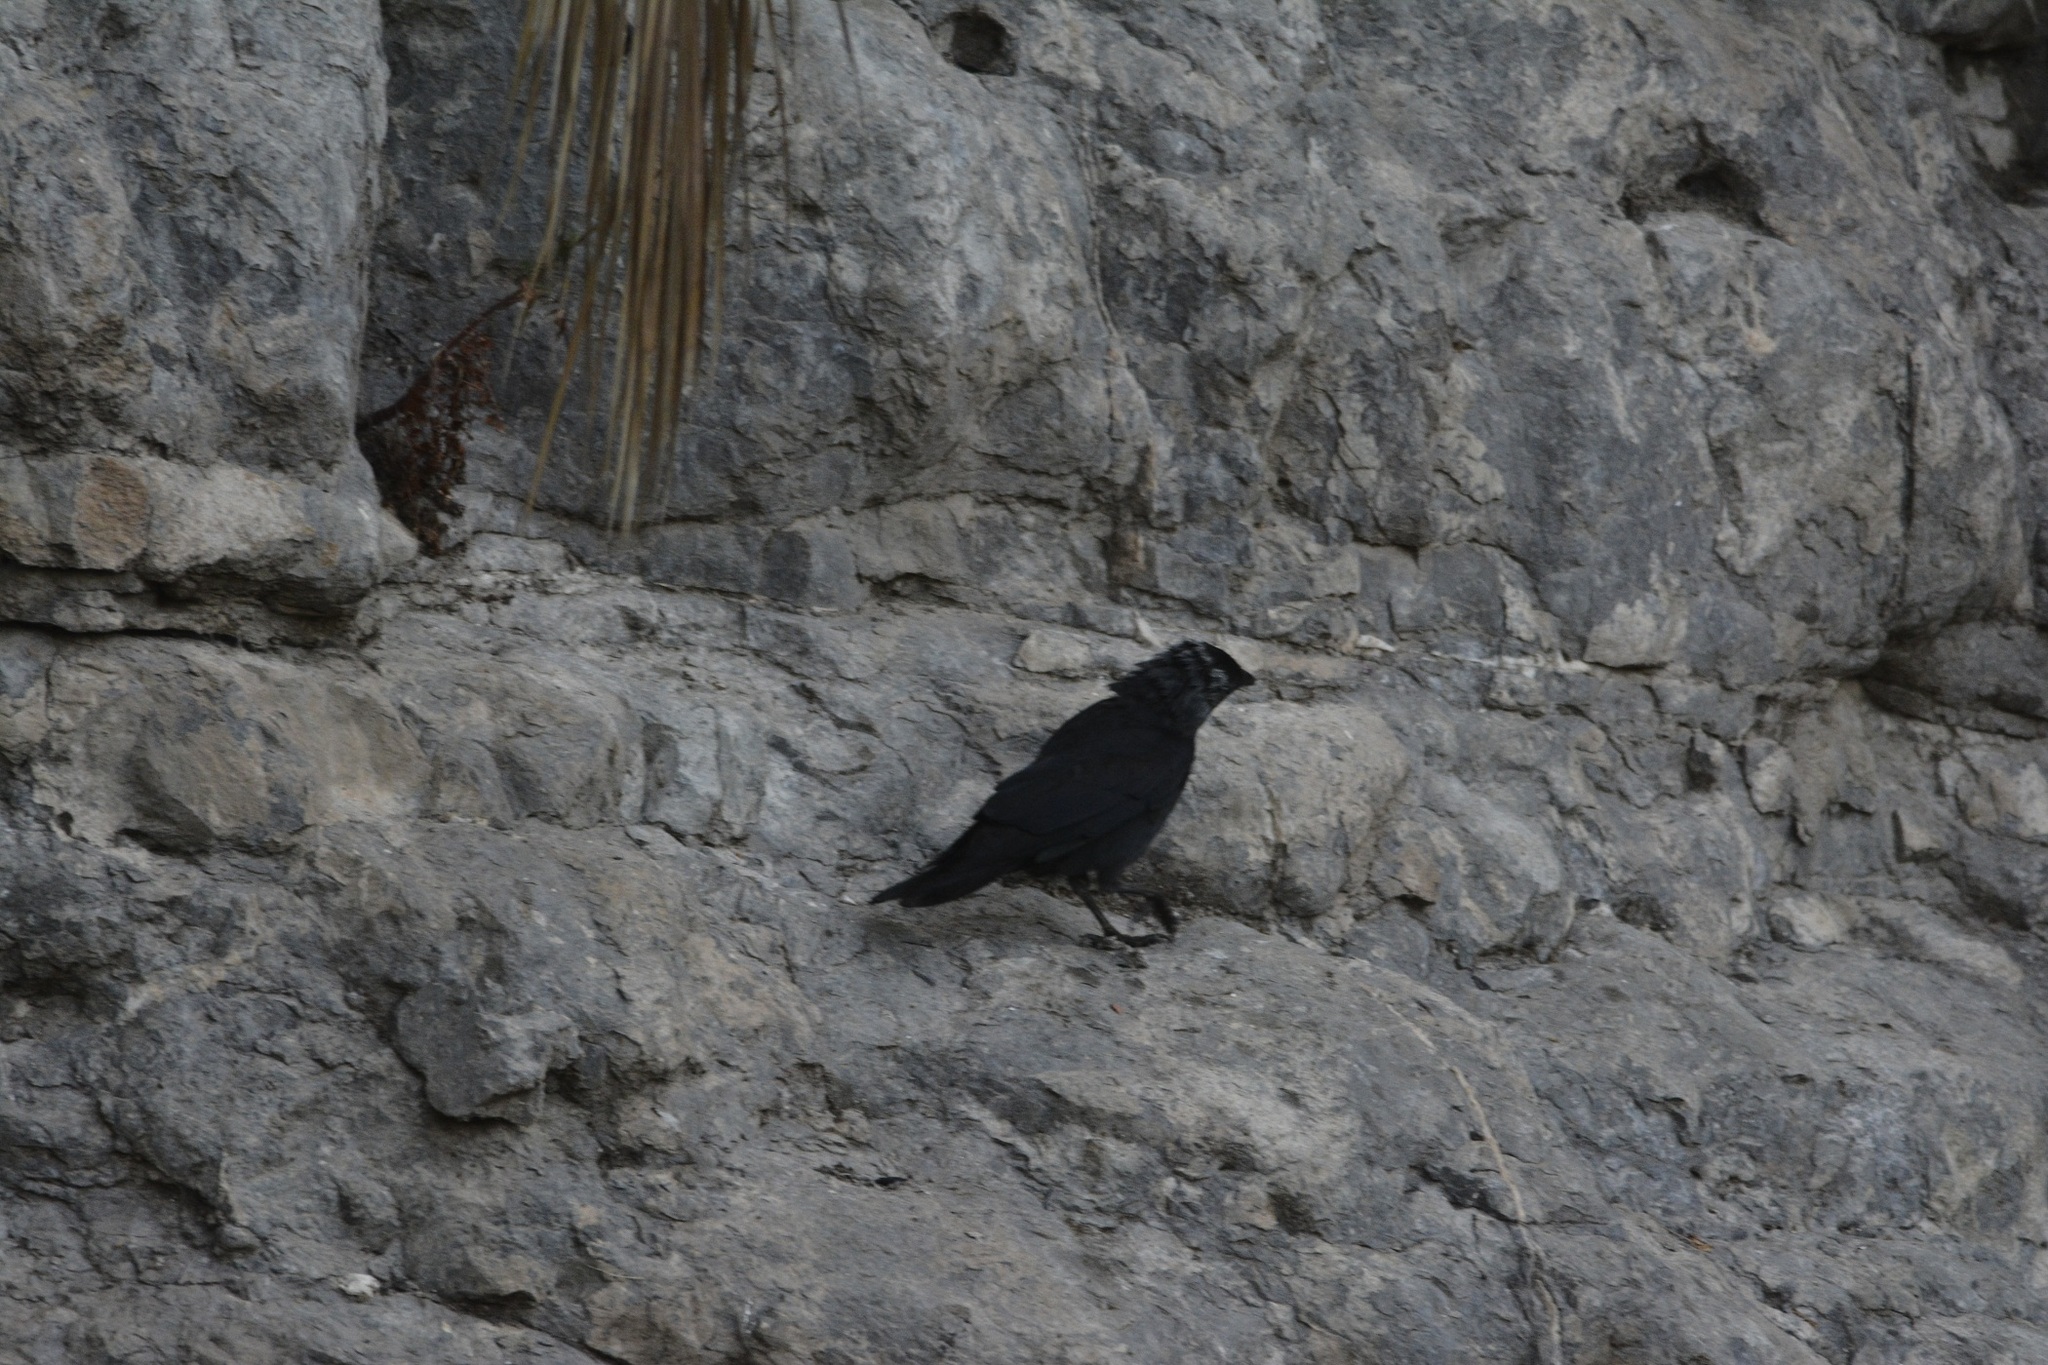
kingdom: Animalia
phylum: Chordata
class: Aves
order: Passeriformes
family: Corvidae
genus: Coloeus
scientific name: Coloeus monedula
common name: Western jackdaw
